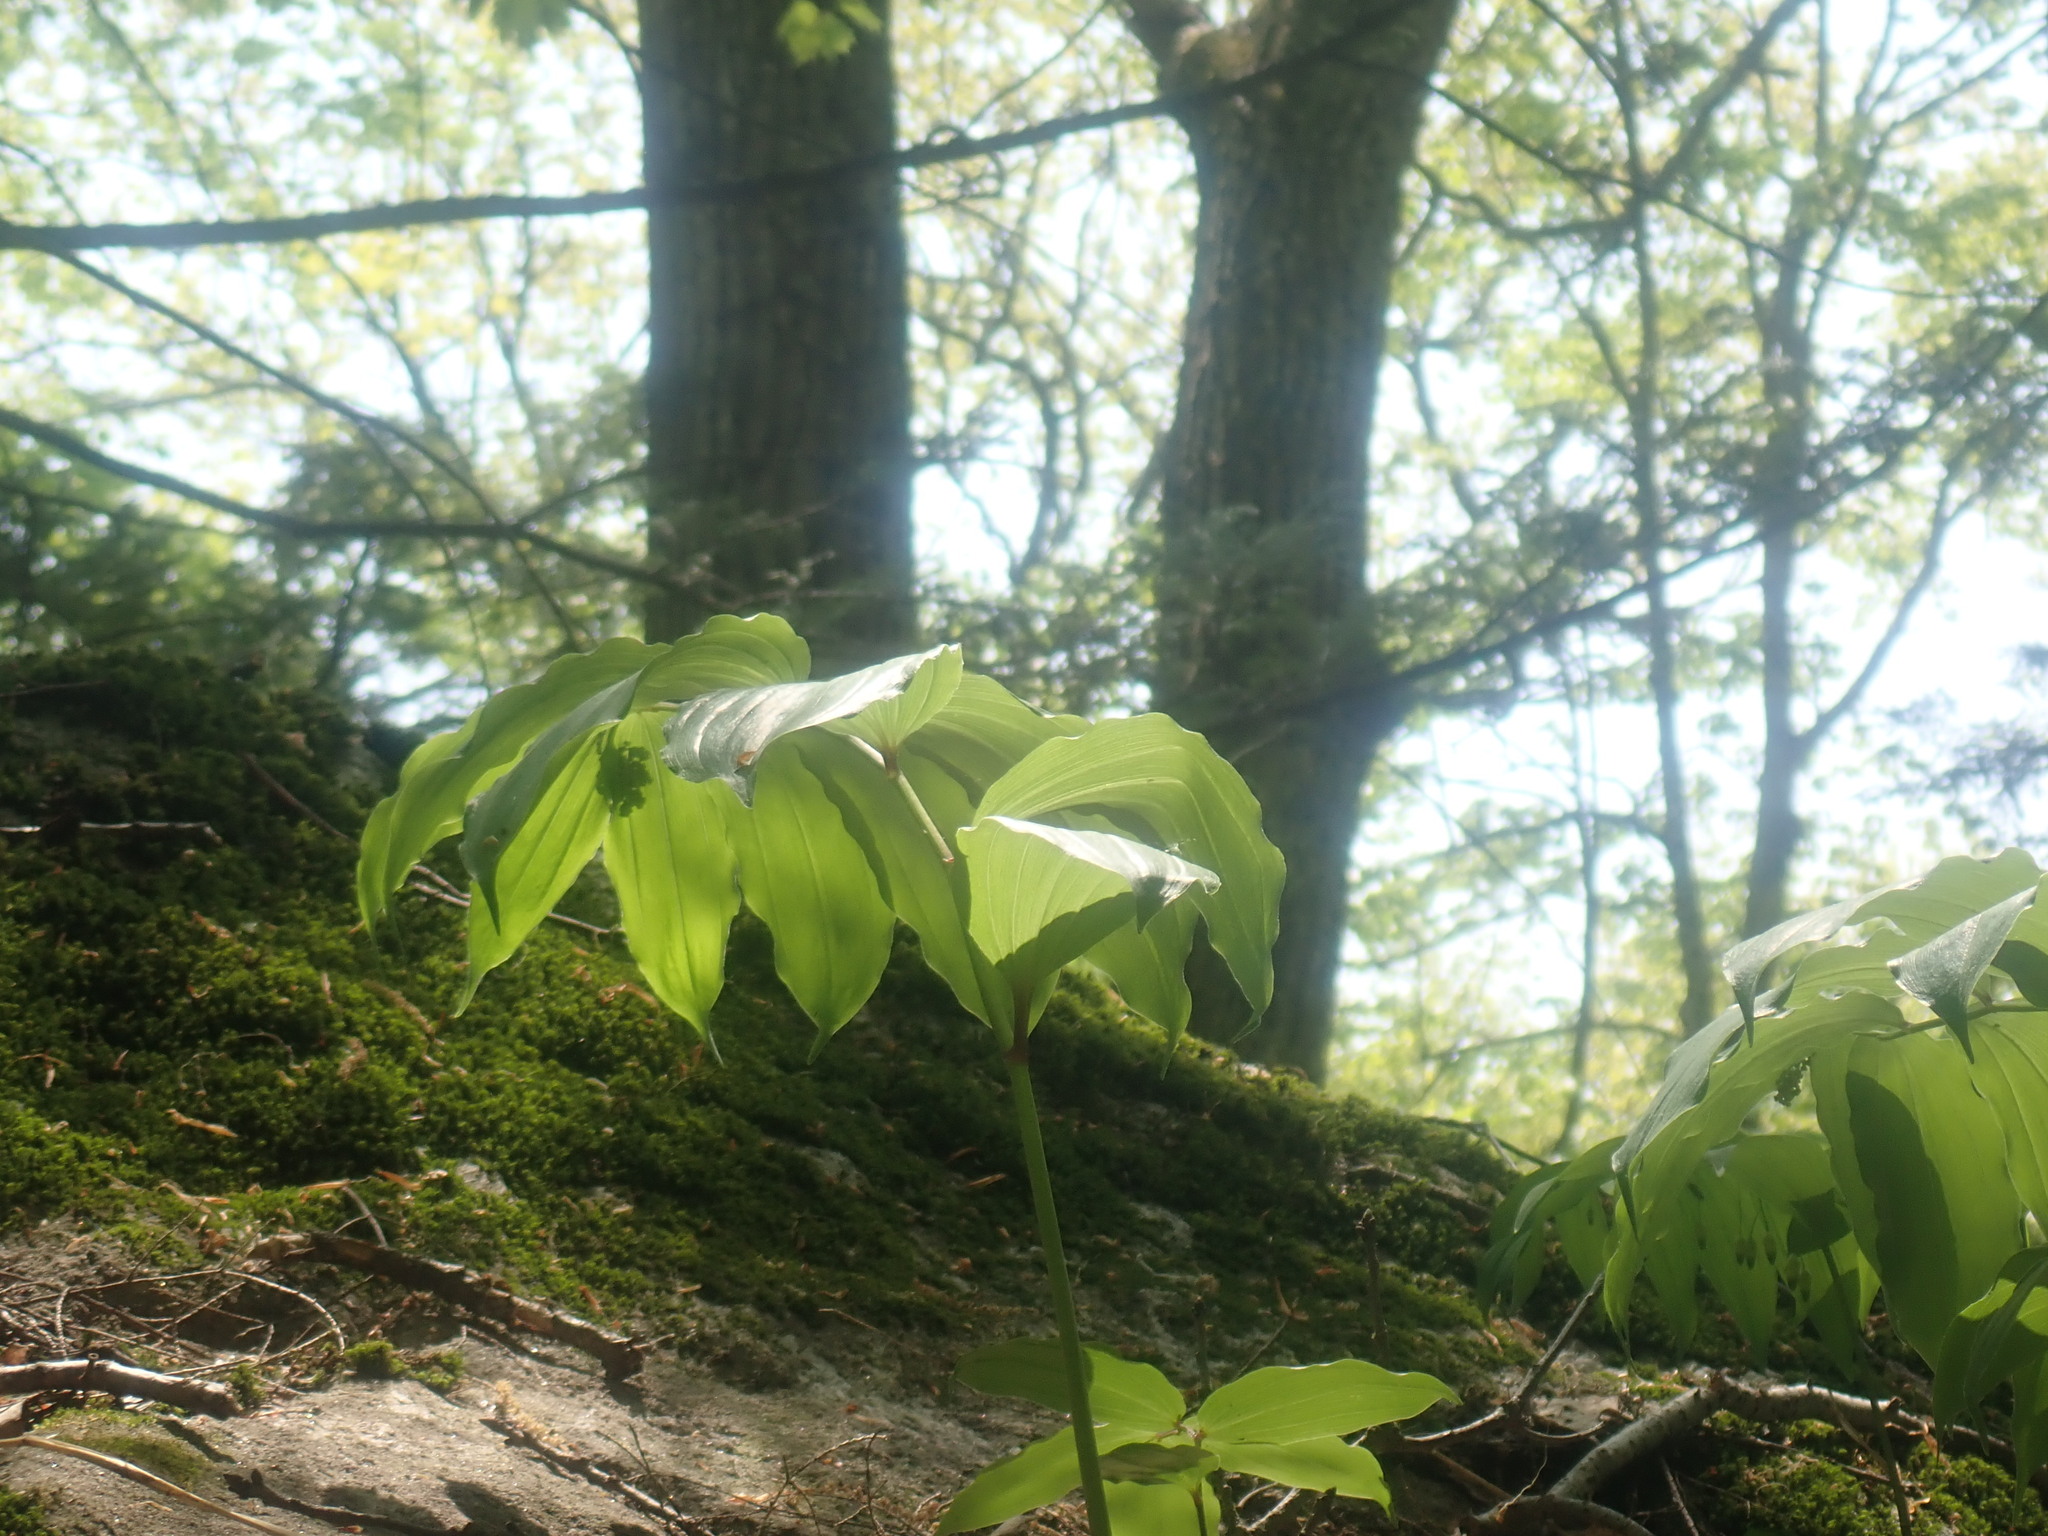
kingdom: Plantae
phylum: Tracheophyta
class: Liliopsida
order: Asparagales
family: Asparagaceae
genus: Maianthemum
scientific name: Maianthemum racemosum
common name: False spikenard
